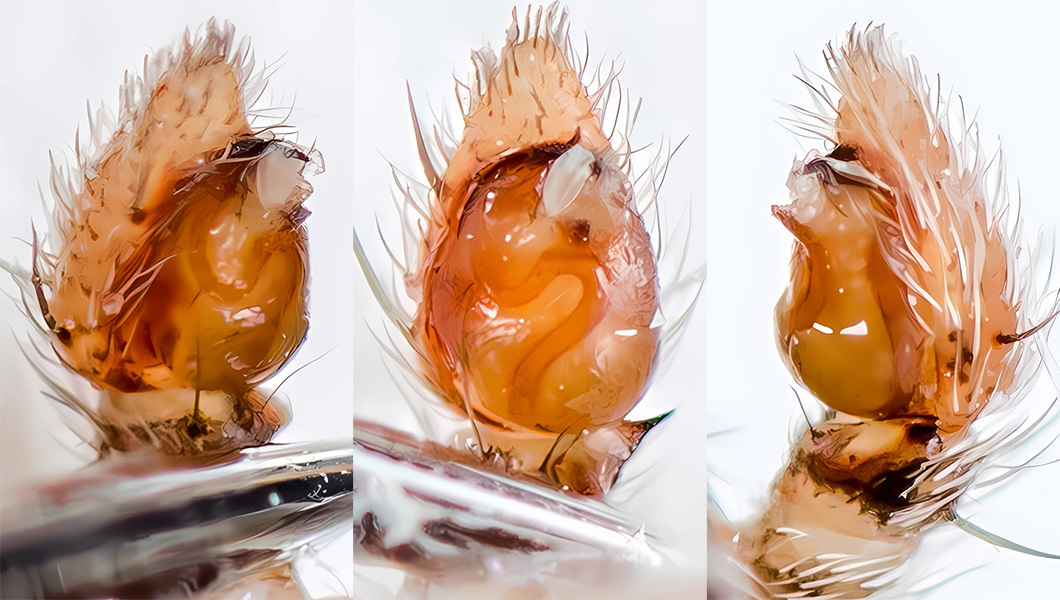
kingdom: Animalia
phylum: Arthropoda
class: Arachnida
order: Araneae
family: Philodromidae
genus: Thanatus
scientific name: Thanatus mikhailovi
